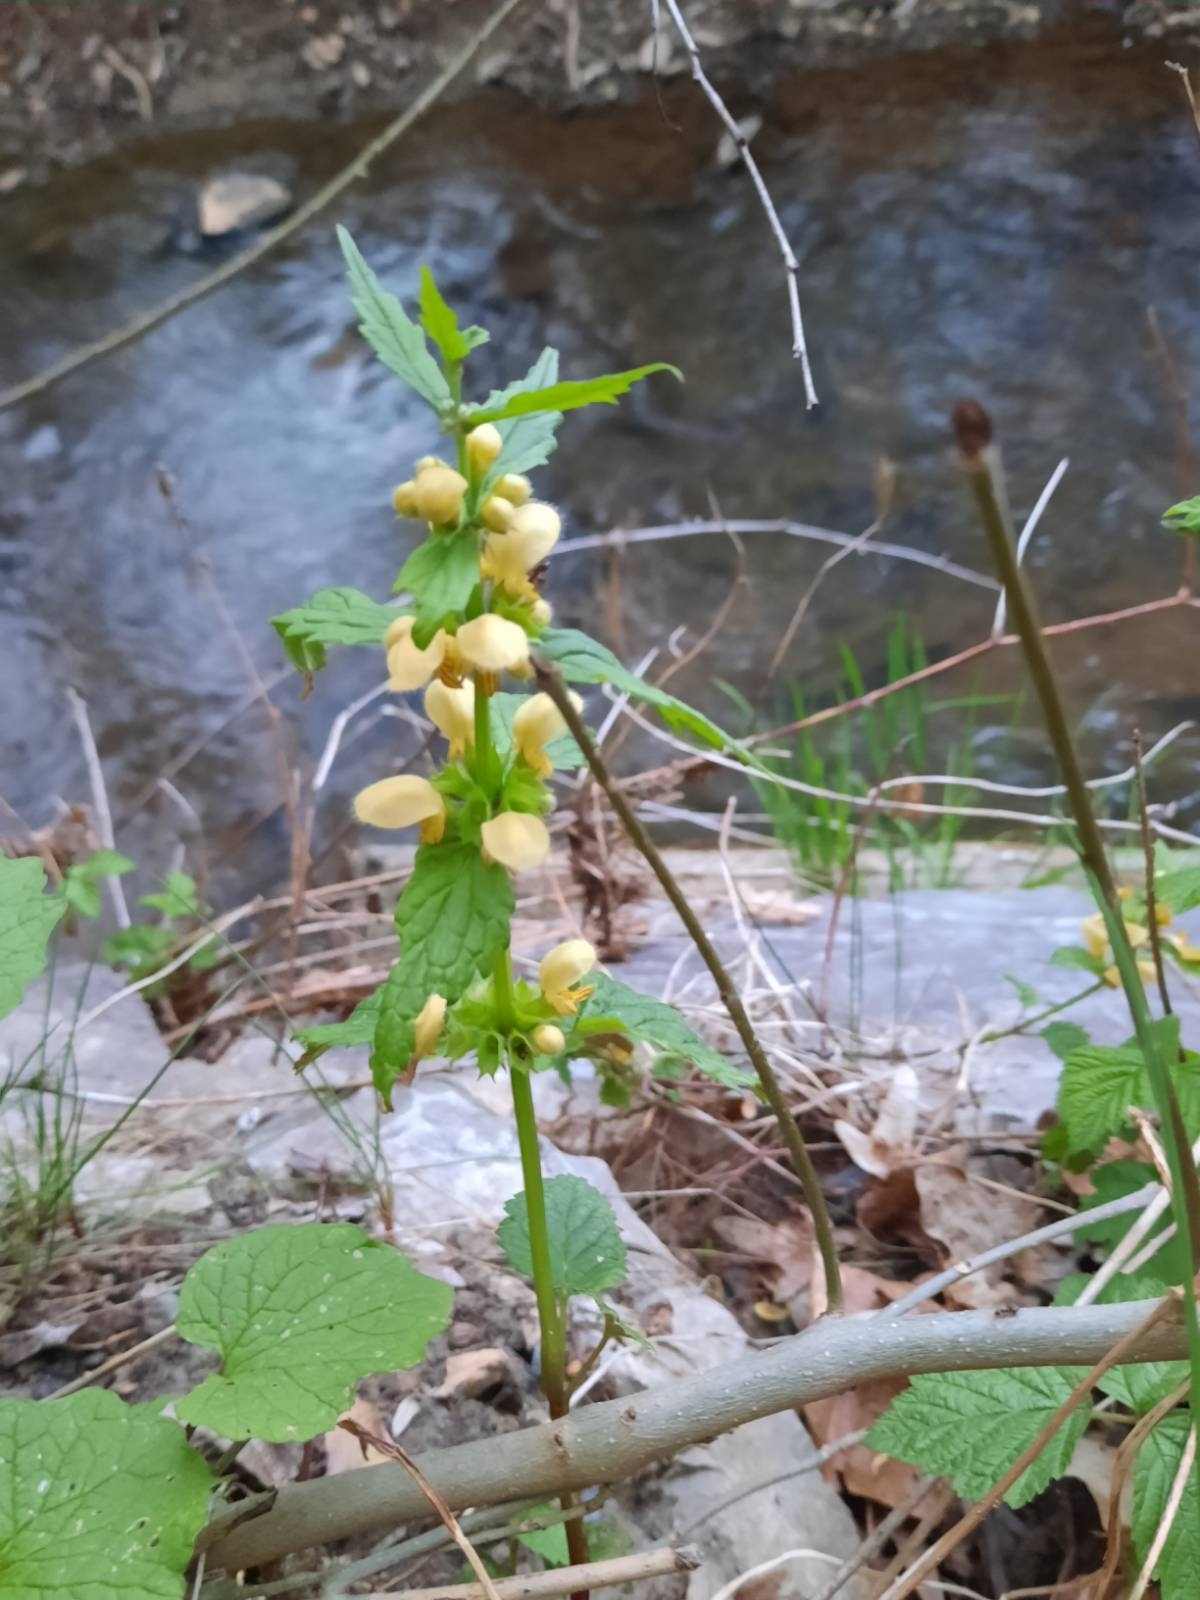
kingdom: Plantae
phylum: Tracheophyta
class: Magnoliopsida
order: Lamiales
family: Lamiaceae
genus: Lamium
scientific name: Lamium galeobdolon
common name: Yellow archangel
